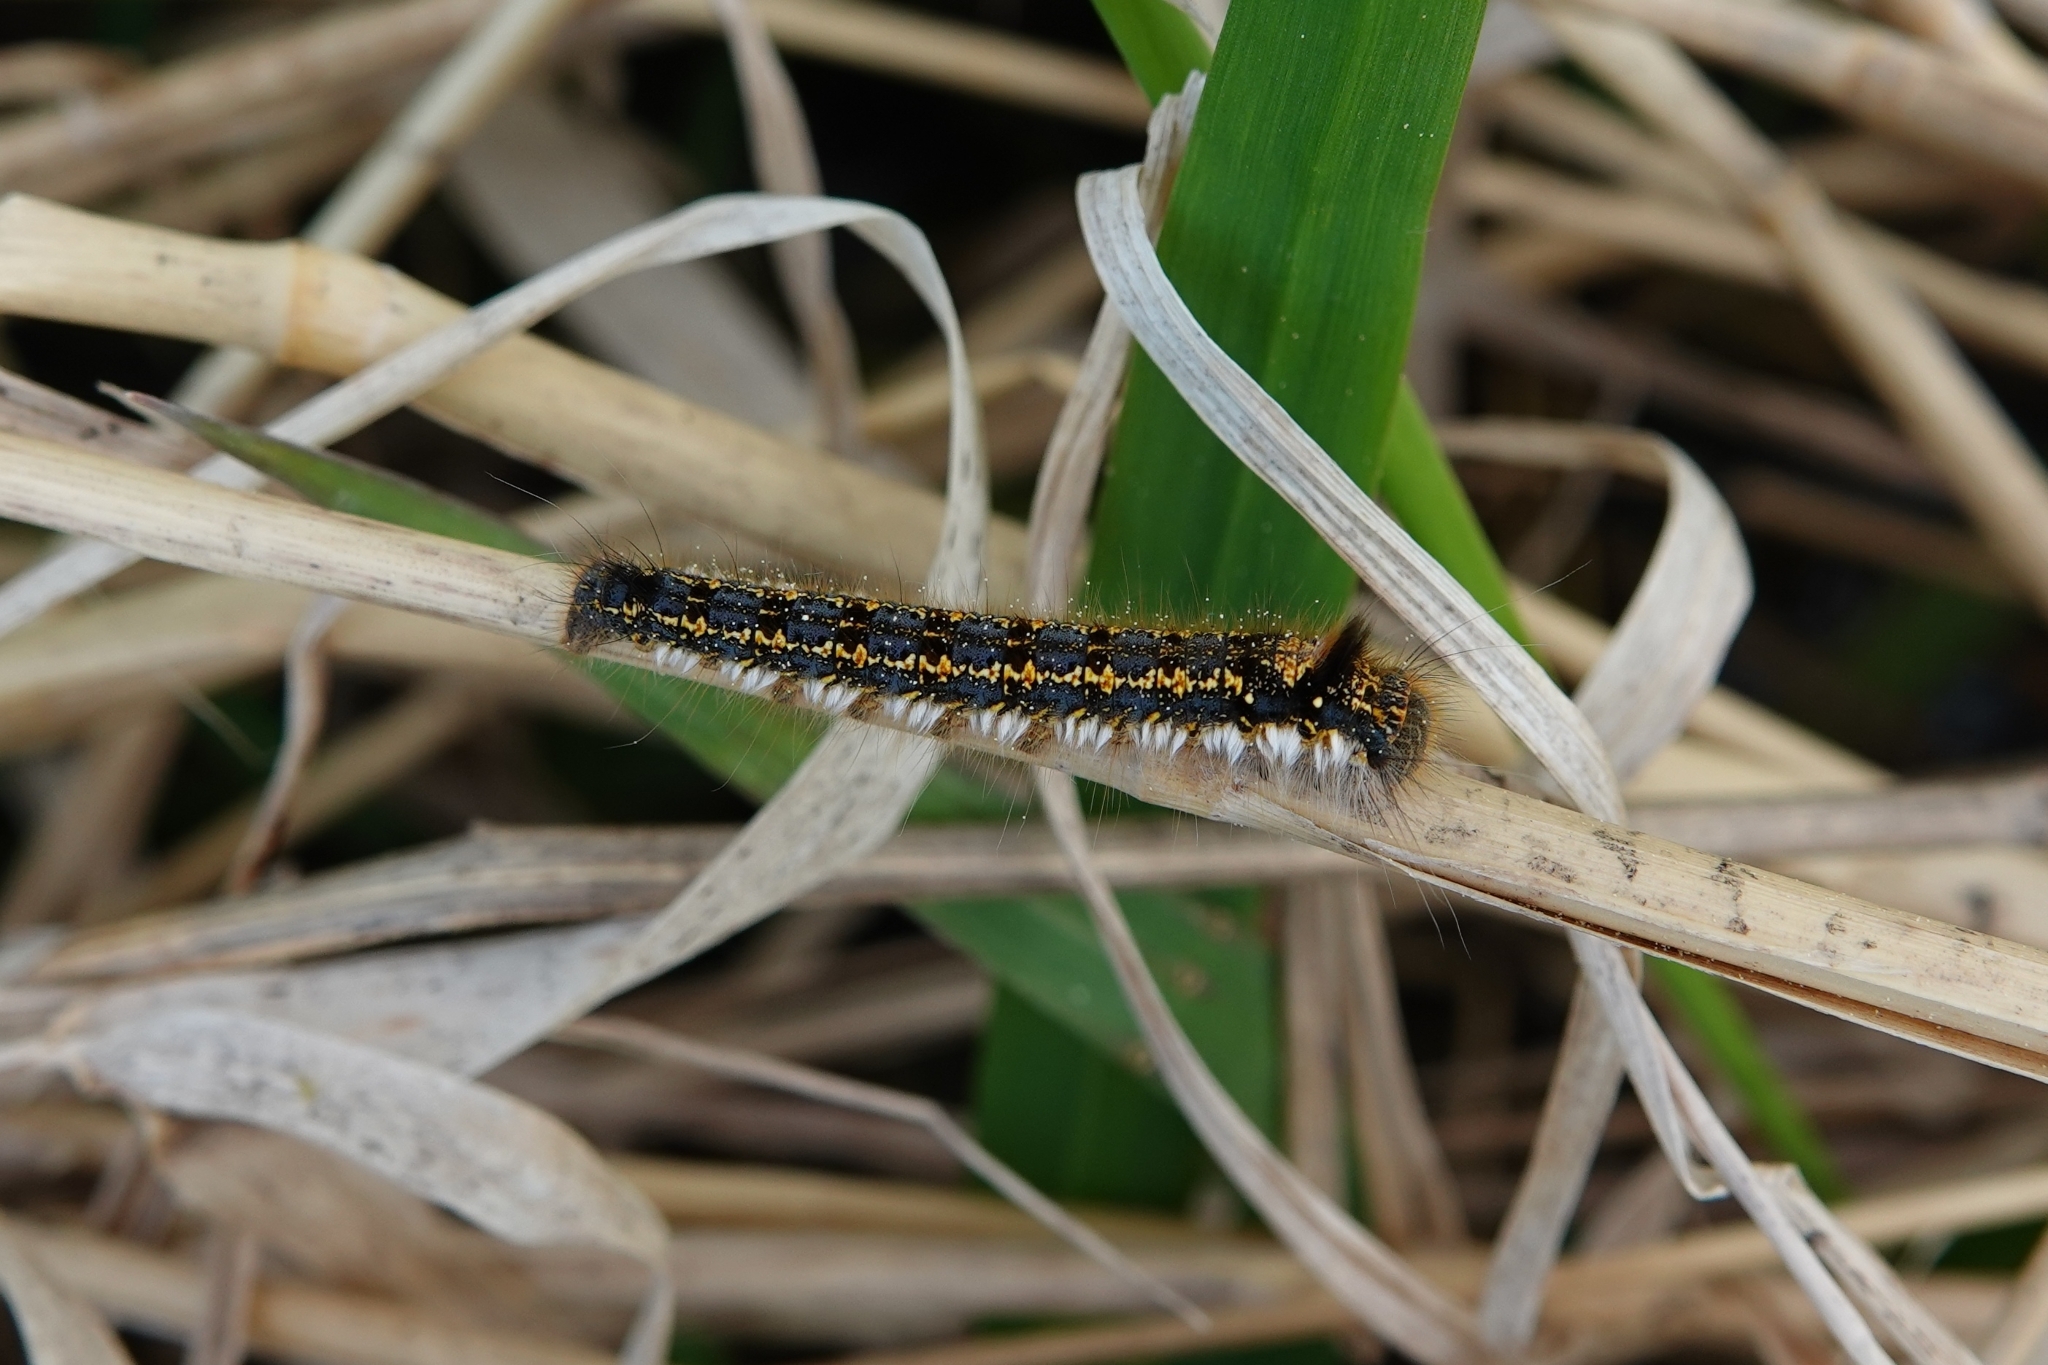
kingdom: Animalia
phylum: Arthropoda
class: Insecta
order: Lepidoptera
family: Lasiocampidae
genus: Euthrix
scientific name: Euthrix potatoria
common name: Drinker
